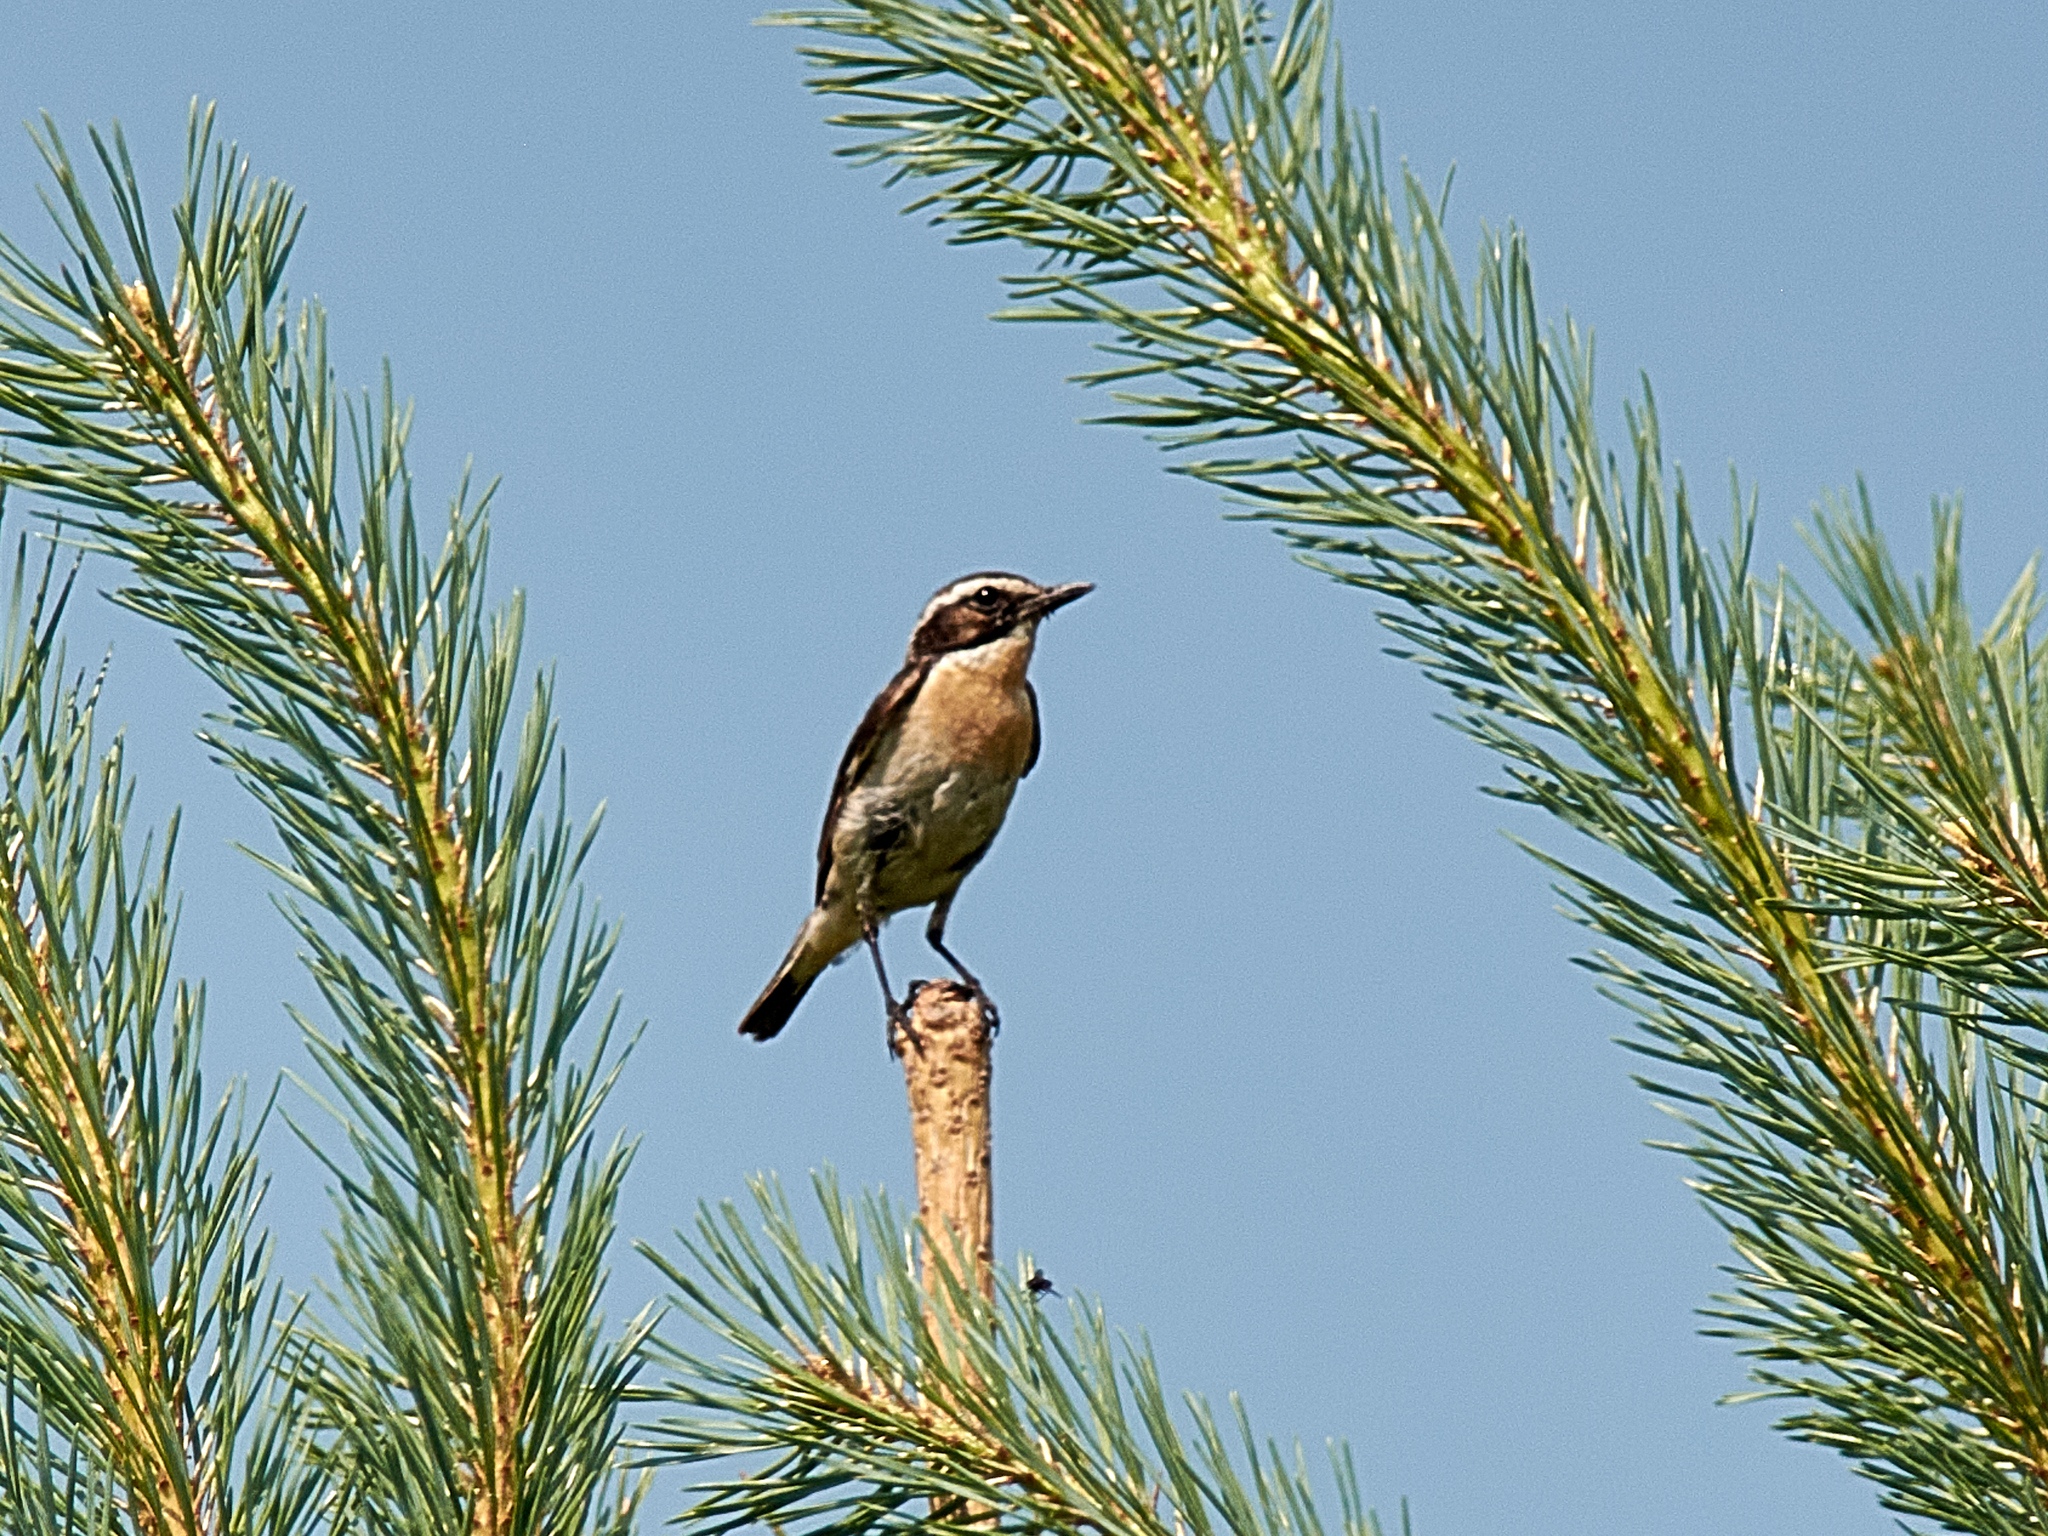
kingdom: Animalia
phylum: Chordata
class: Aves
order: Passeriformes
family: Muscicapidae
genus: Saxicola
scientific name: Saxicola rubetra
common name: Whinchat
